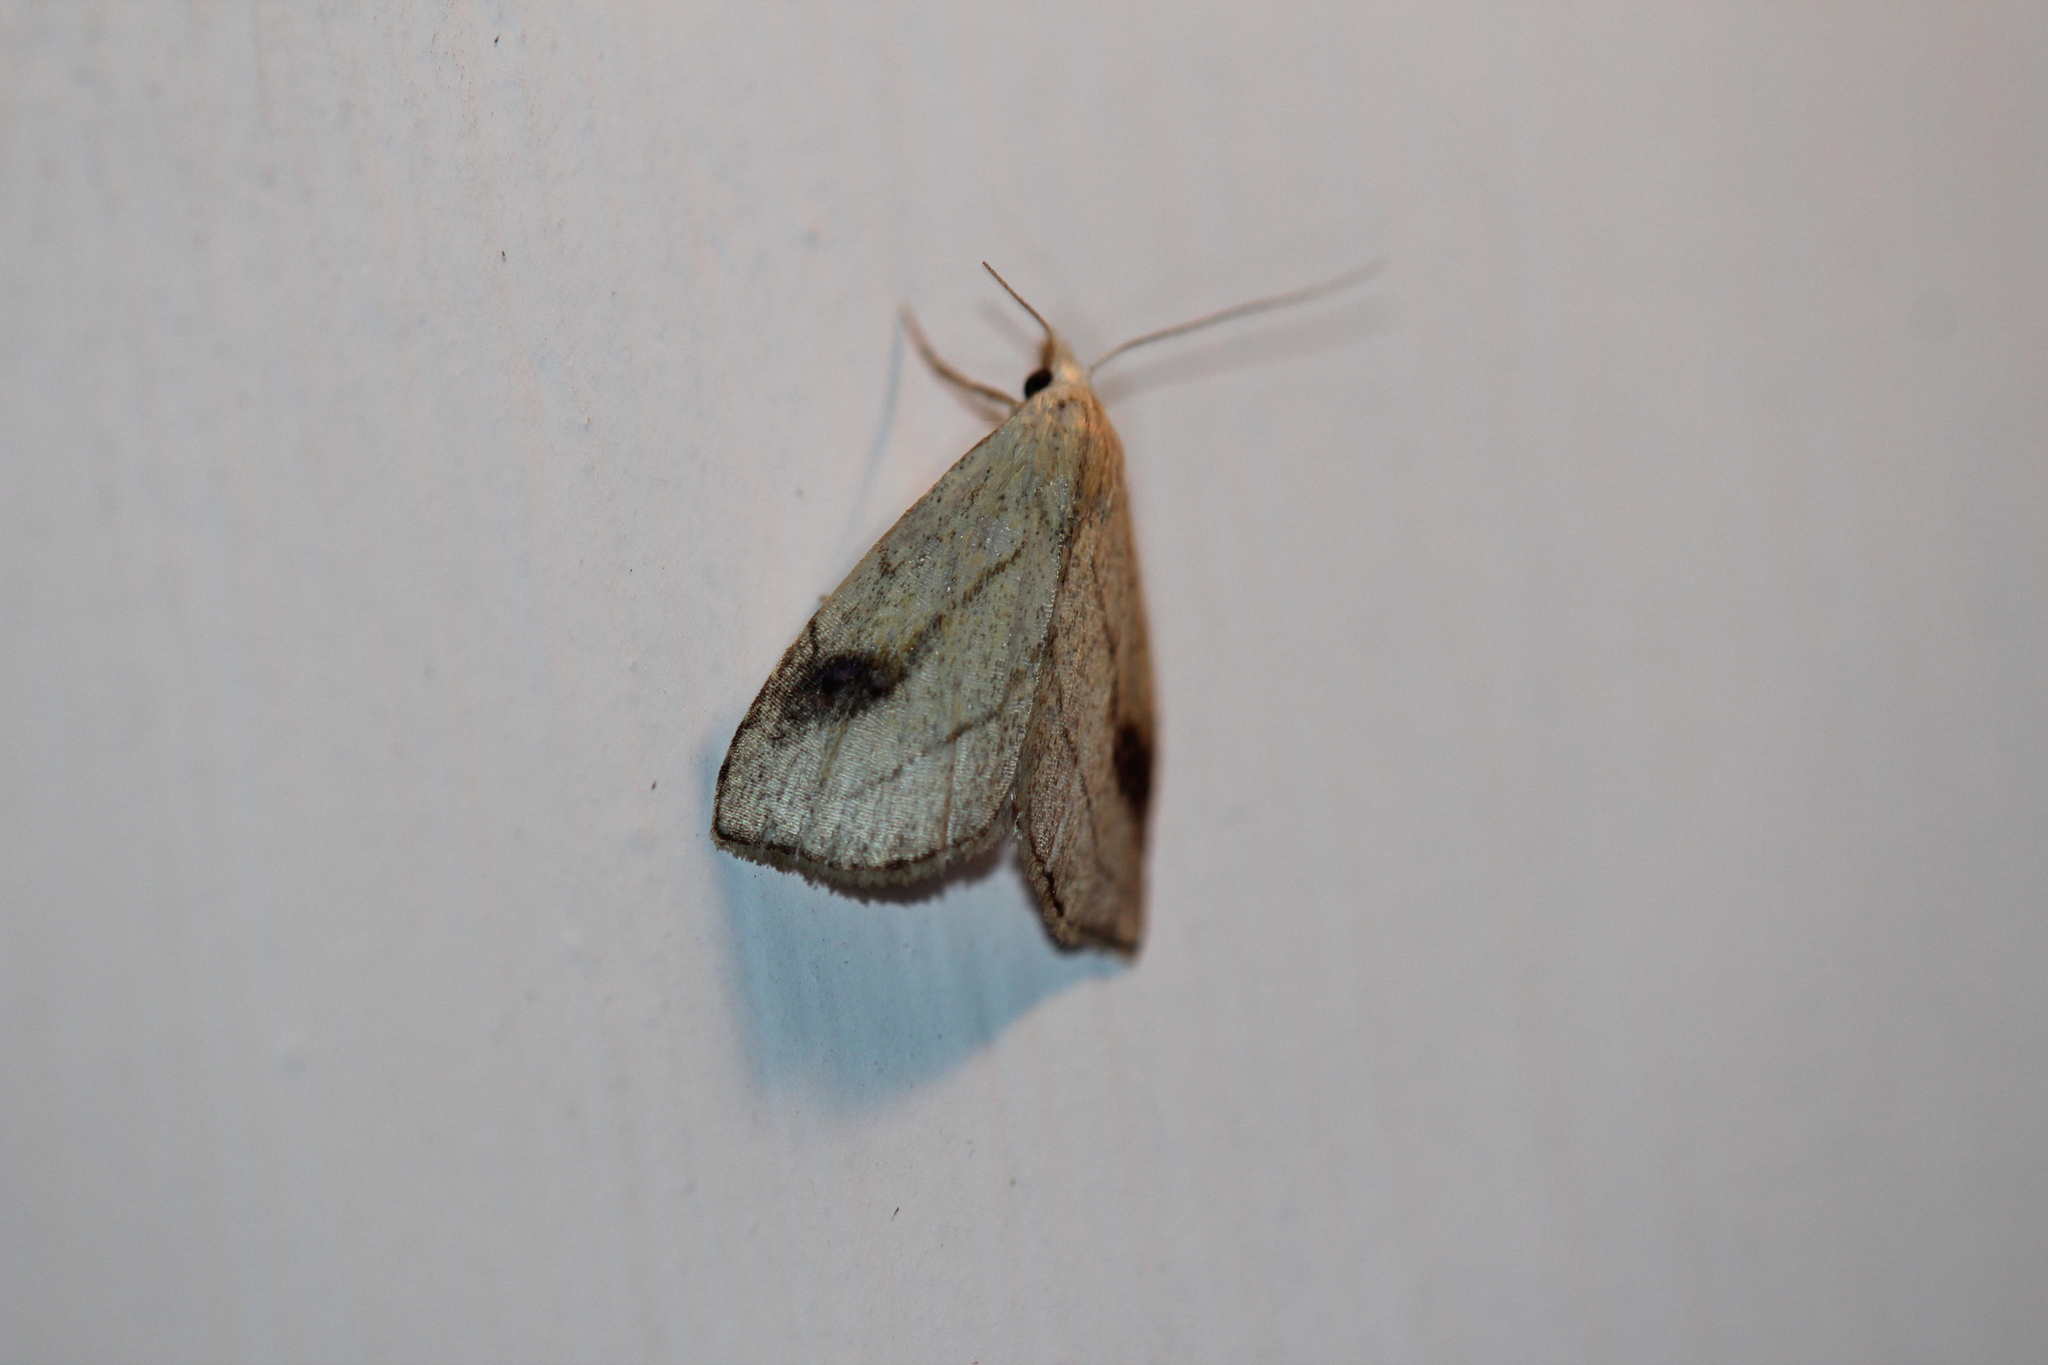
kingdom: Animalia
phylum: Arthropoda
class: Insecta
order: Lepidoptera
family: Erebidae
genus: Rivula
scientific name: Rivula propinqualis
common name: Spotted grass moth
